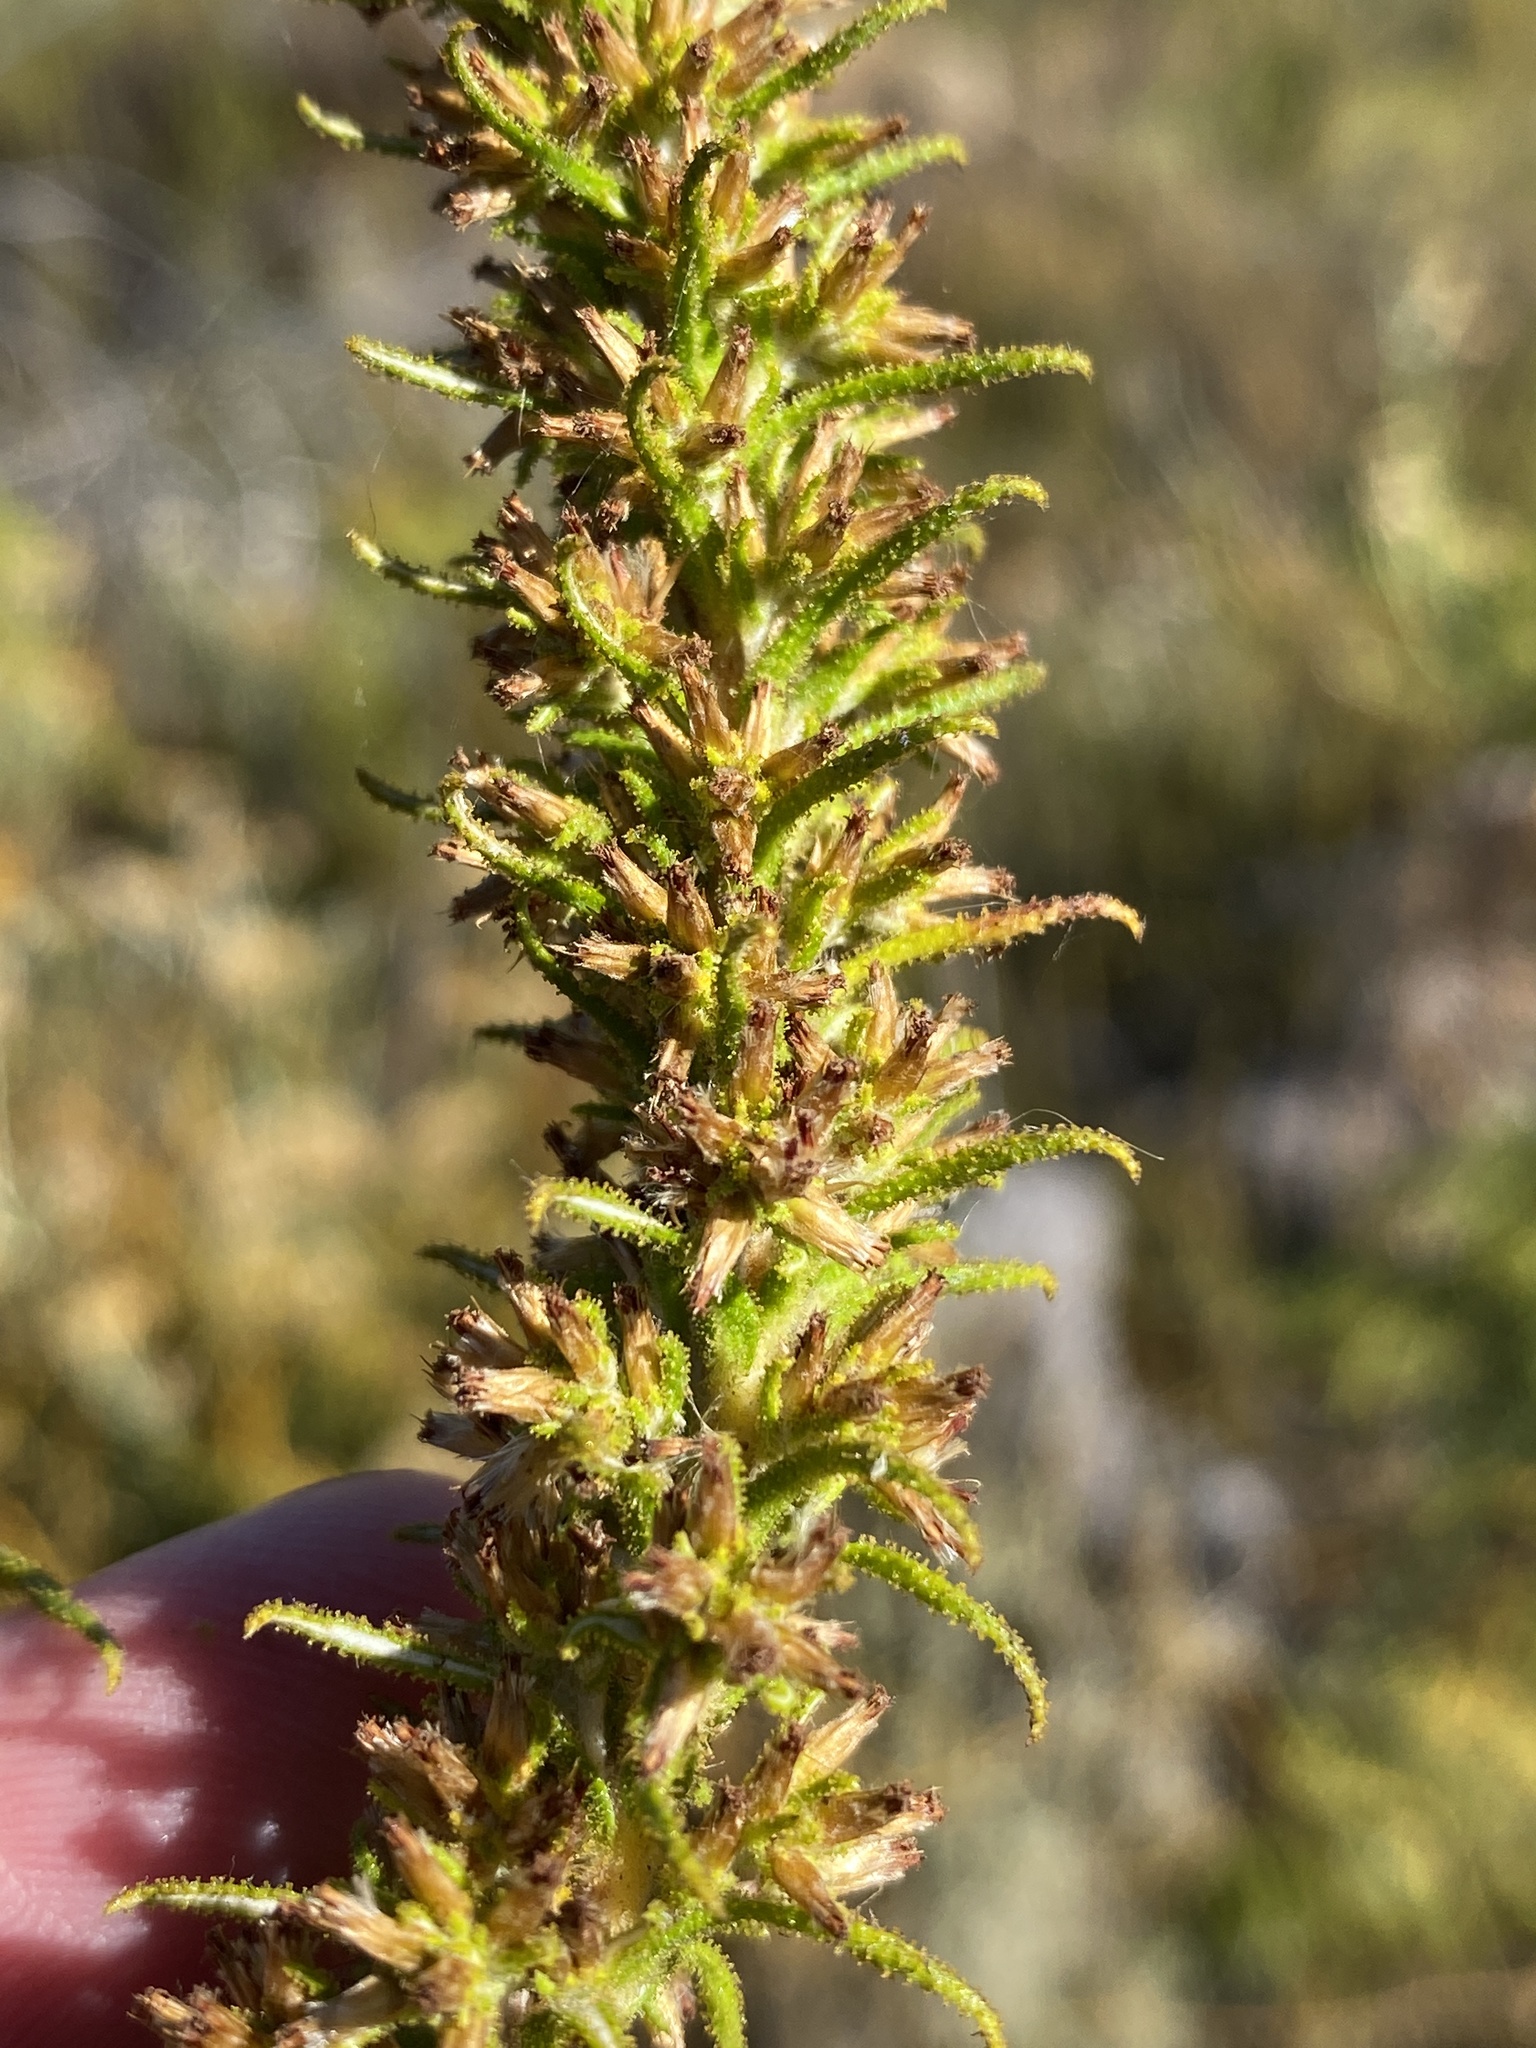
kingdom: Plantae
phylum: Tracheophyta
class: Magnoliopsida
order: Asterales
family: Asteraceae
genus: Myrovernix
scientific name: Myrovernix gnaphaloides
